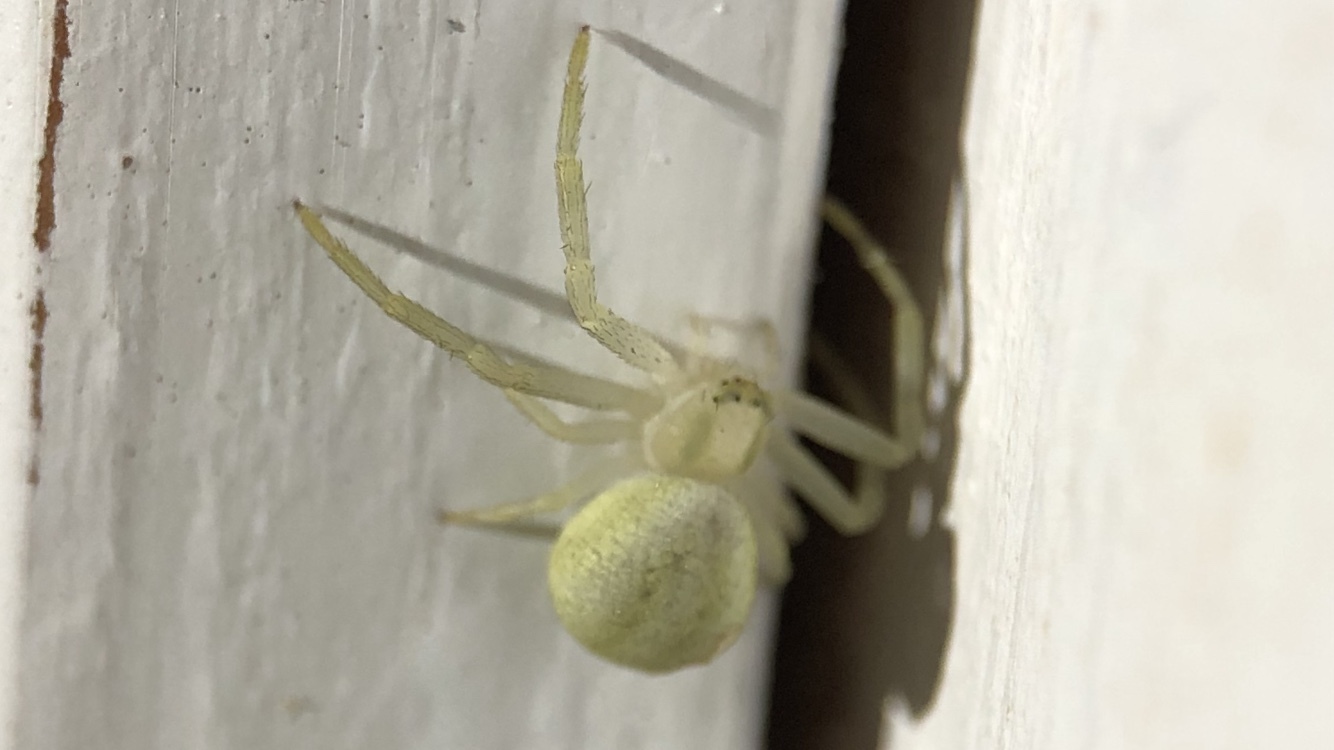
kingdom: Animalia
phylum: Arthropoda
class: Arachnida
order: Araneae
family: Thomisidae
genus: Misumena
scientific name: Misumena vatia
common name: Goldenrod crab spider
